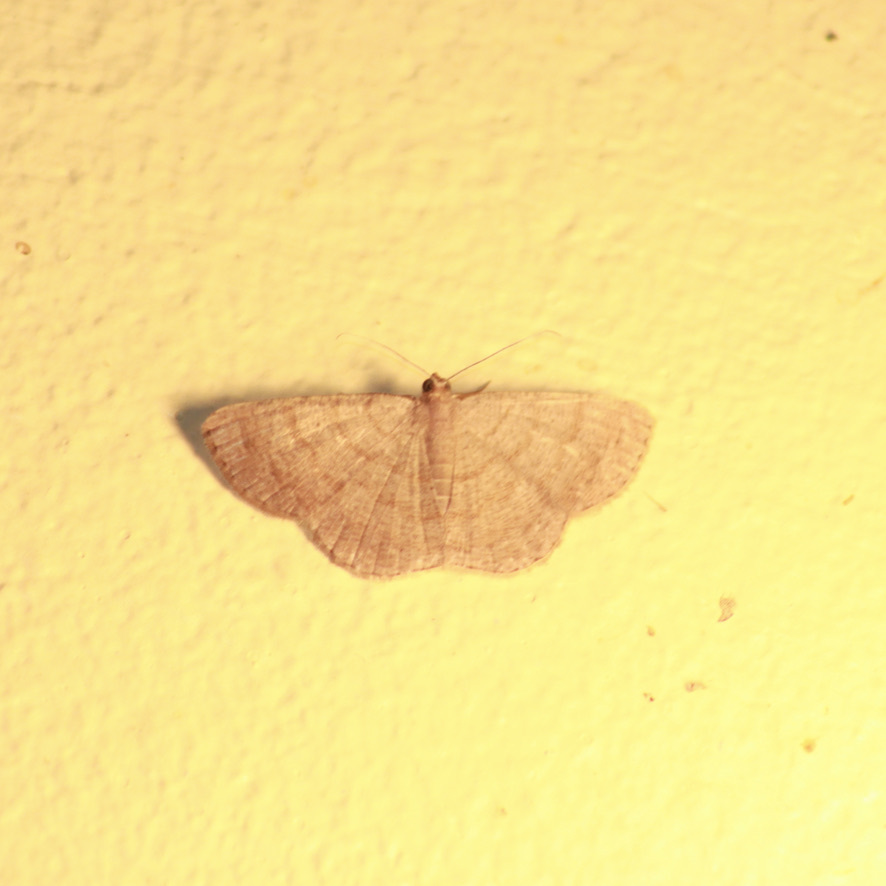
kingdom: Animalia
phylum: Arthropoda
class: Insecta
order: Lepidoptera
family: Geometridae
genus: Parilexia
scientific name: Parilexia nicetaria
